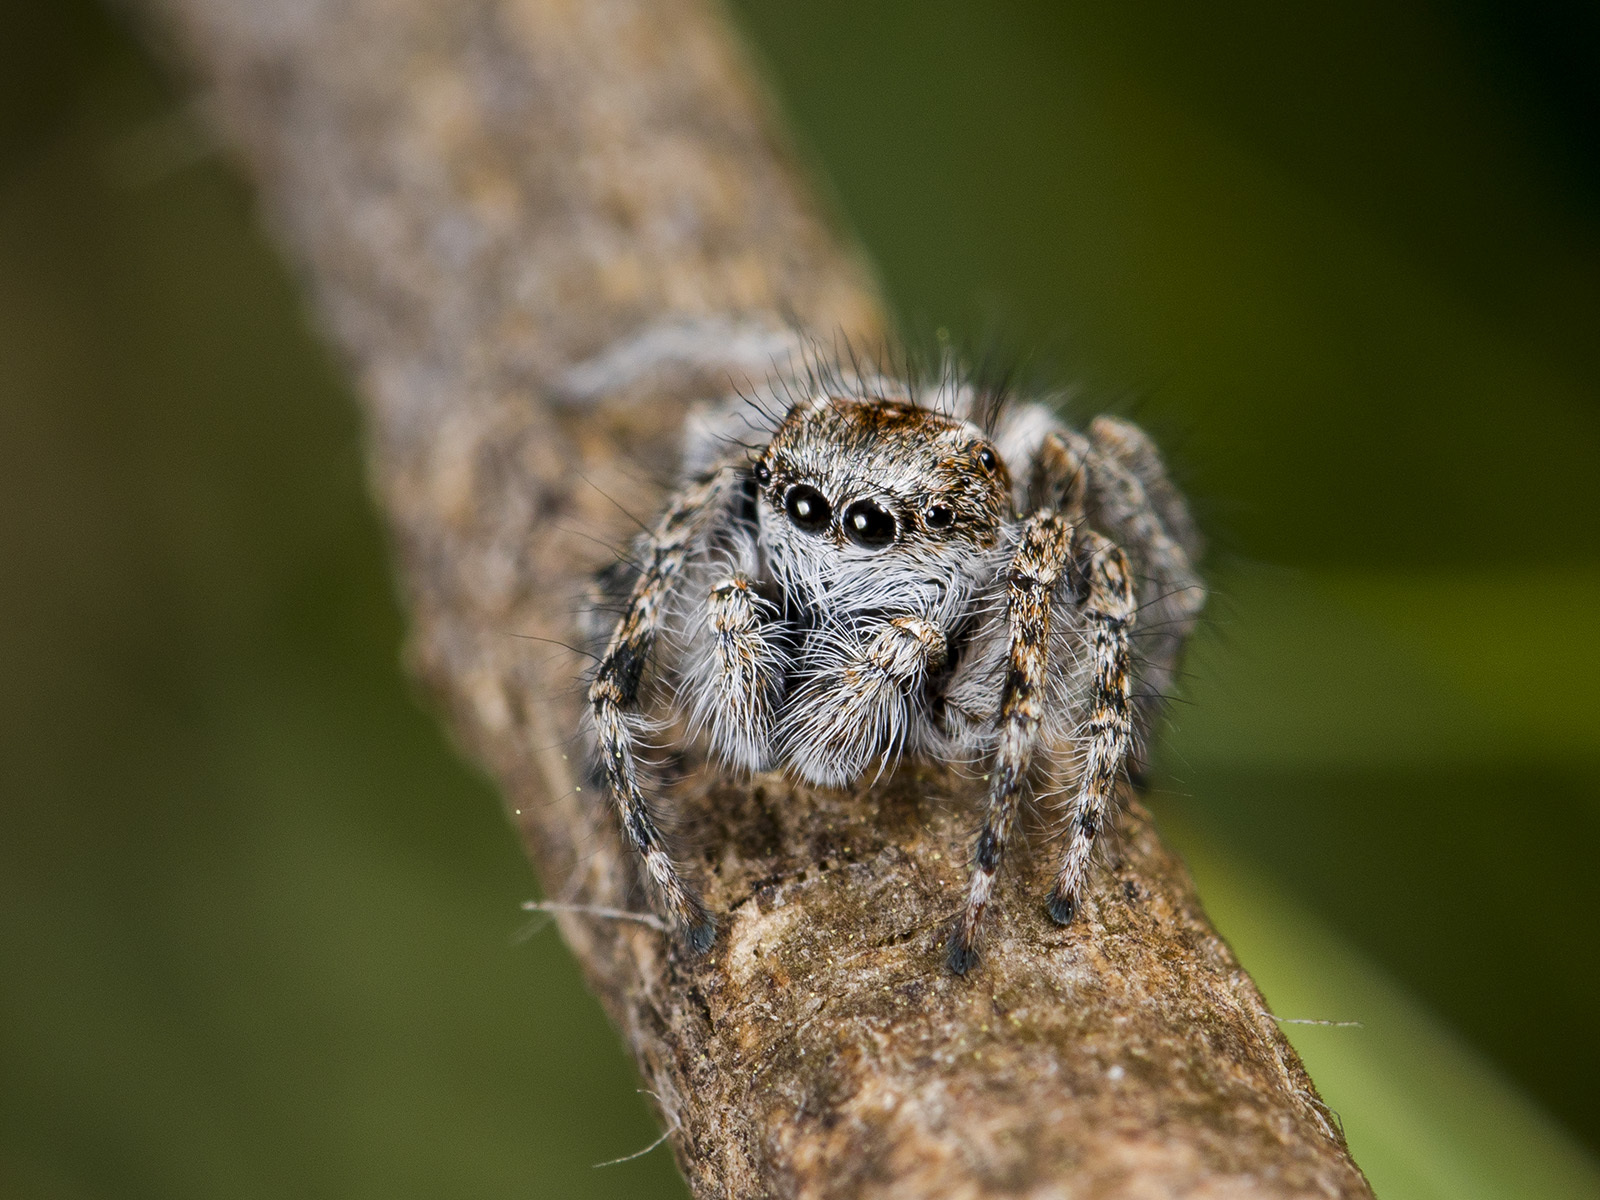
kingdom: Animalia
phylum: Arthropoda
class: Arachnida
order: Araneae
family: Salticidae
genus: Mogrus
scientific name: Mogrus larisae
